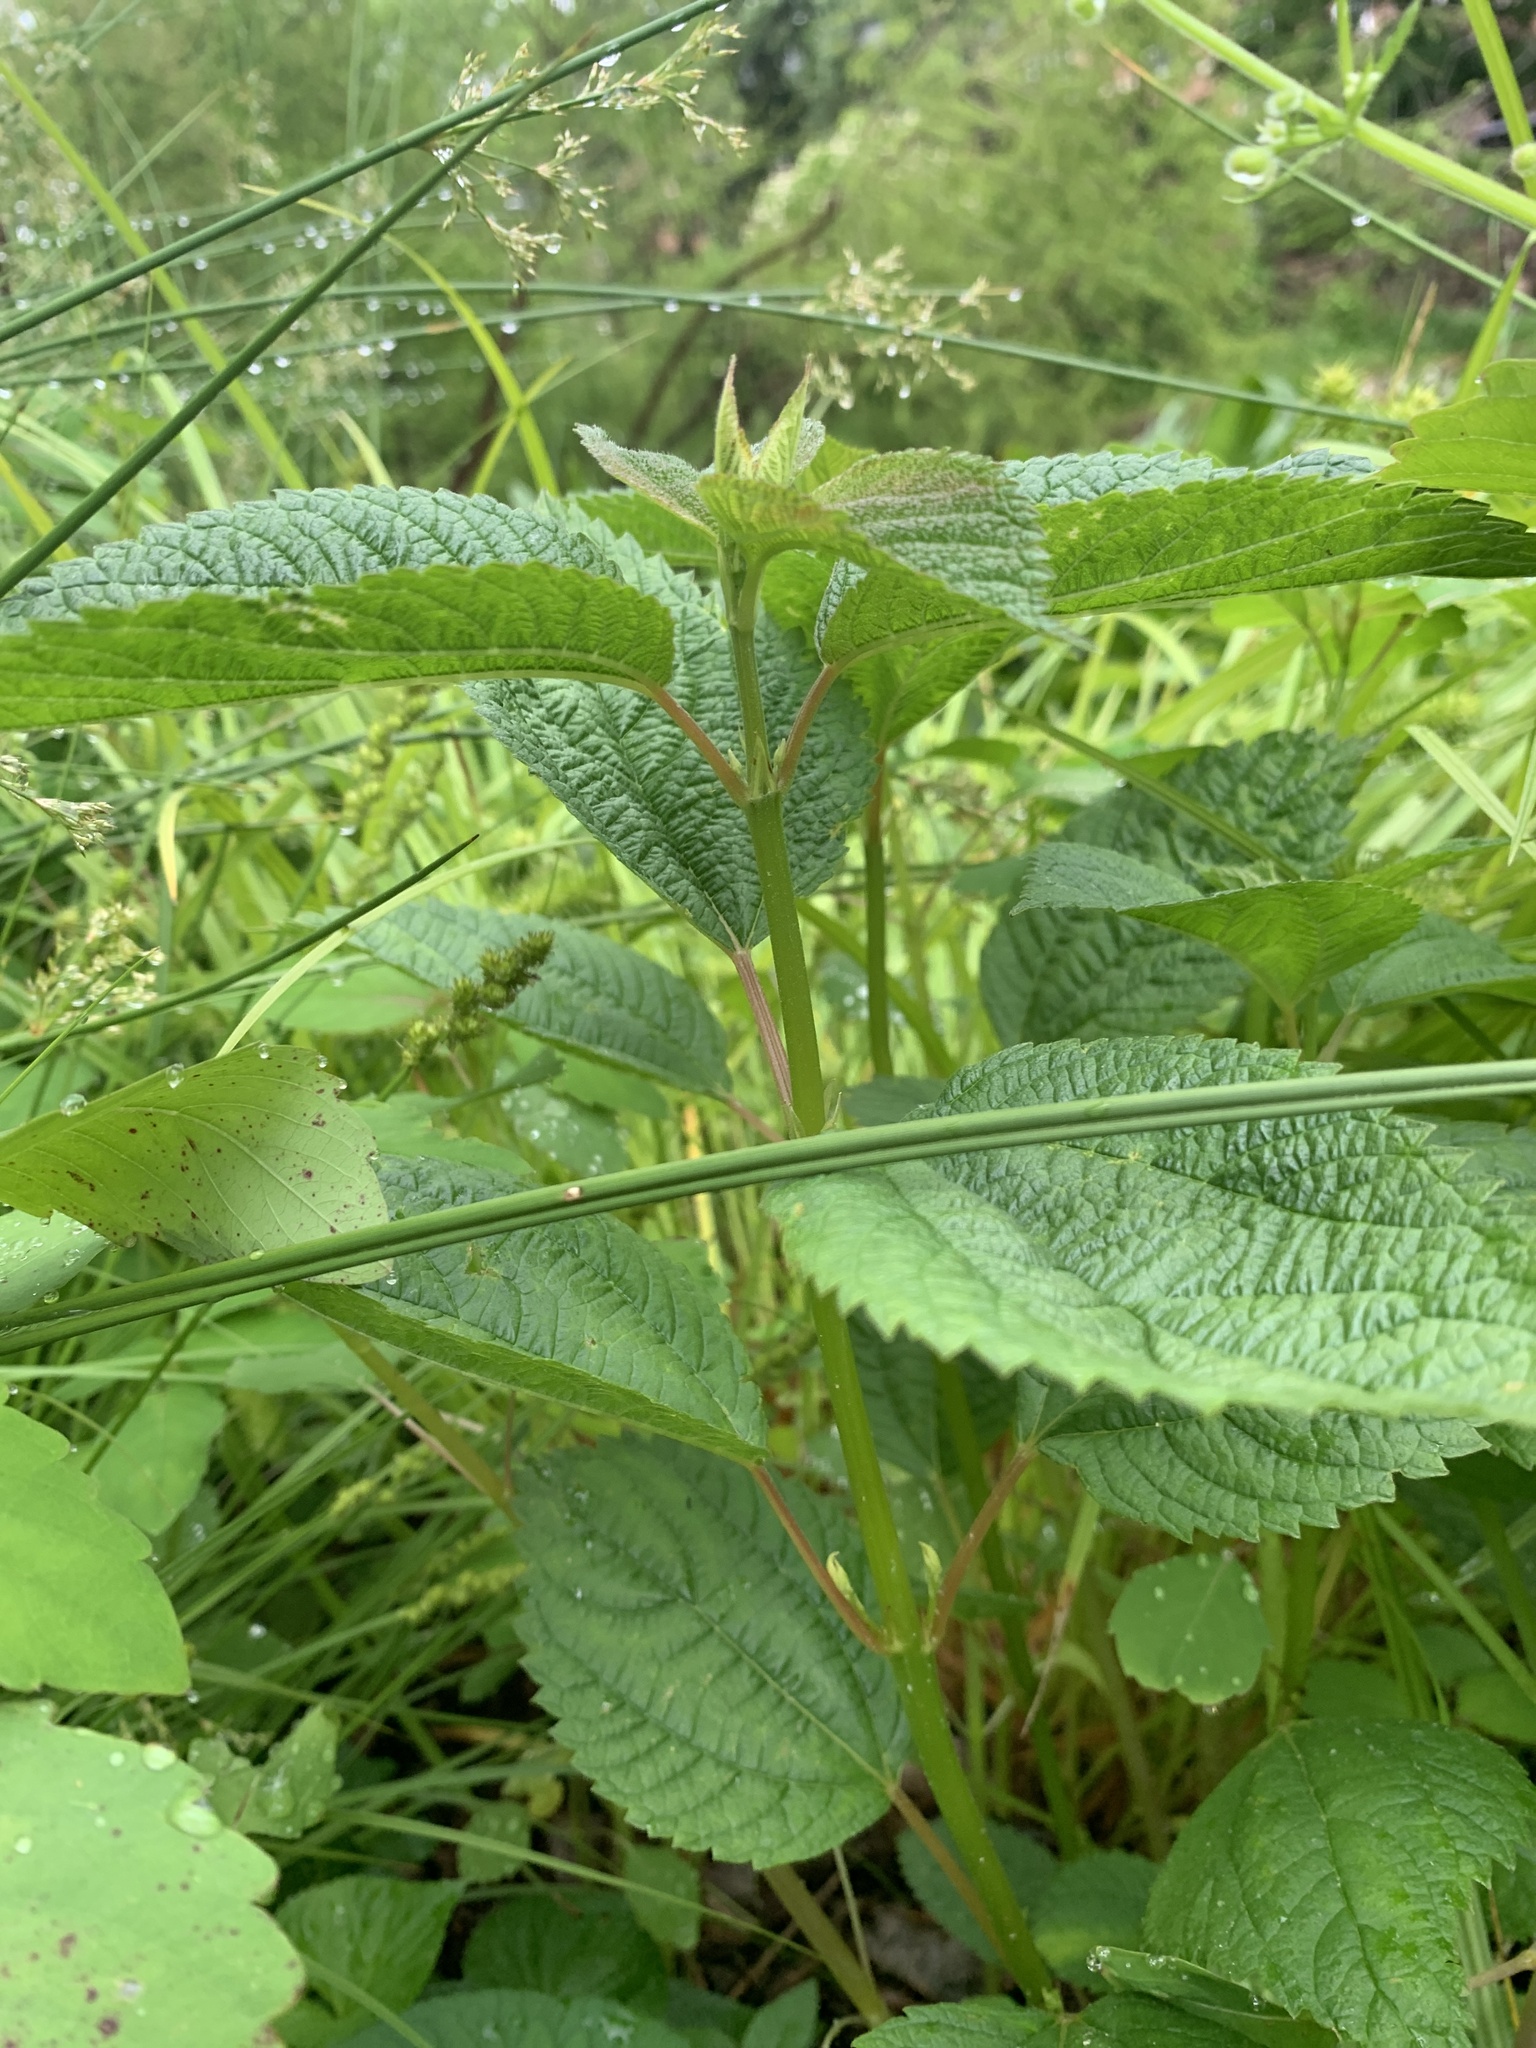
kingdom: Plantae
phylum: Tracheophyta
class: Magnoliopsida
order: Rosales
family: Urticaceae
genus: Boehmeria
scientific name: Boehmeria cylindrica
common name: Bog-hemp
